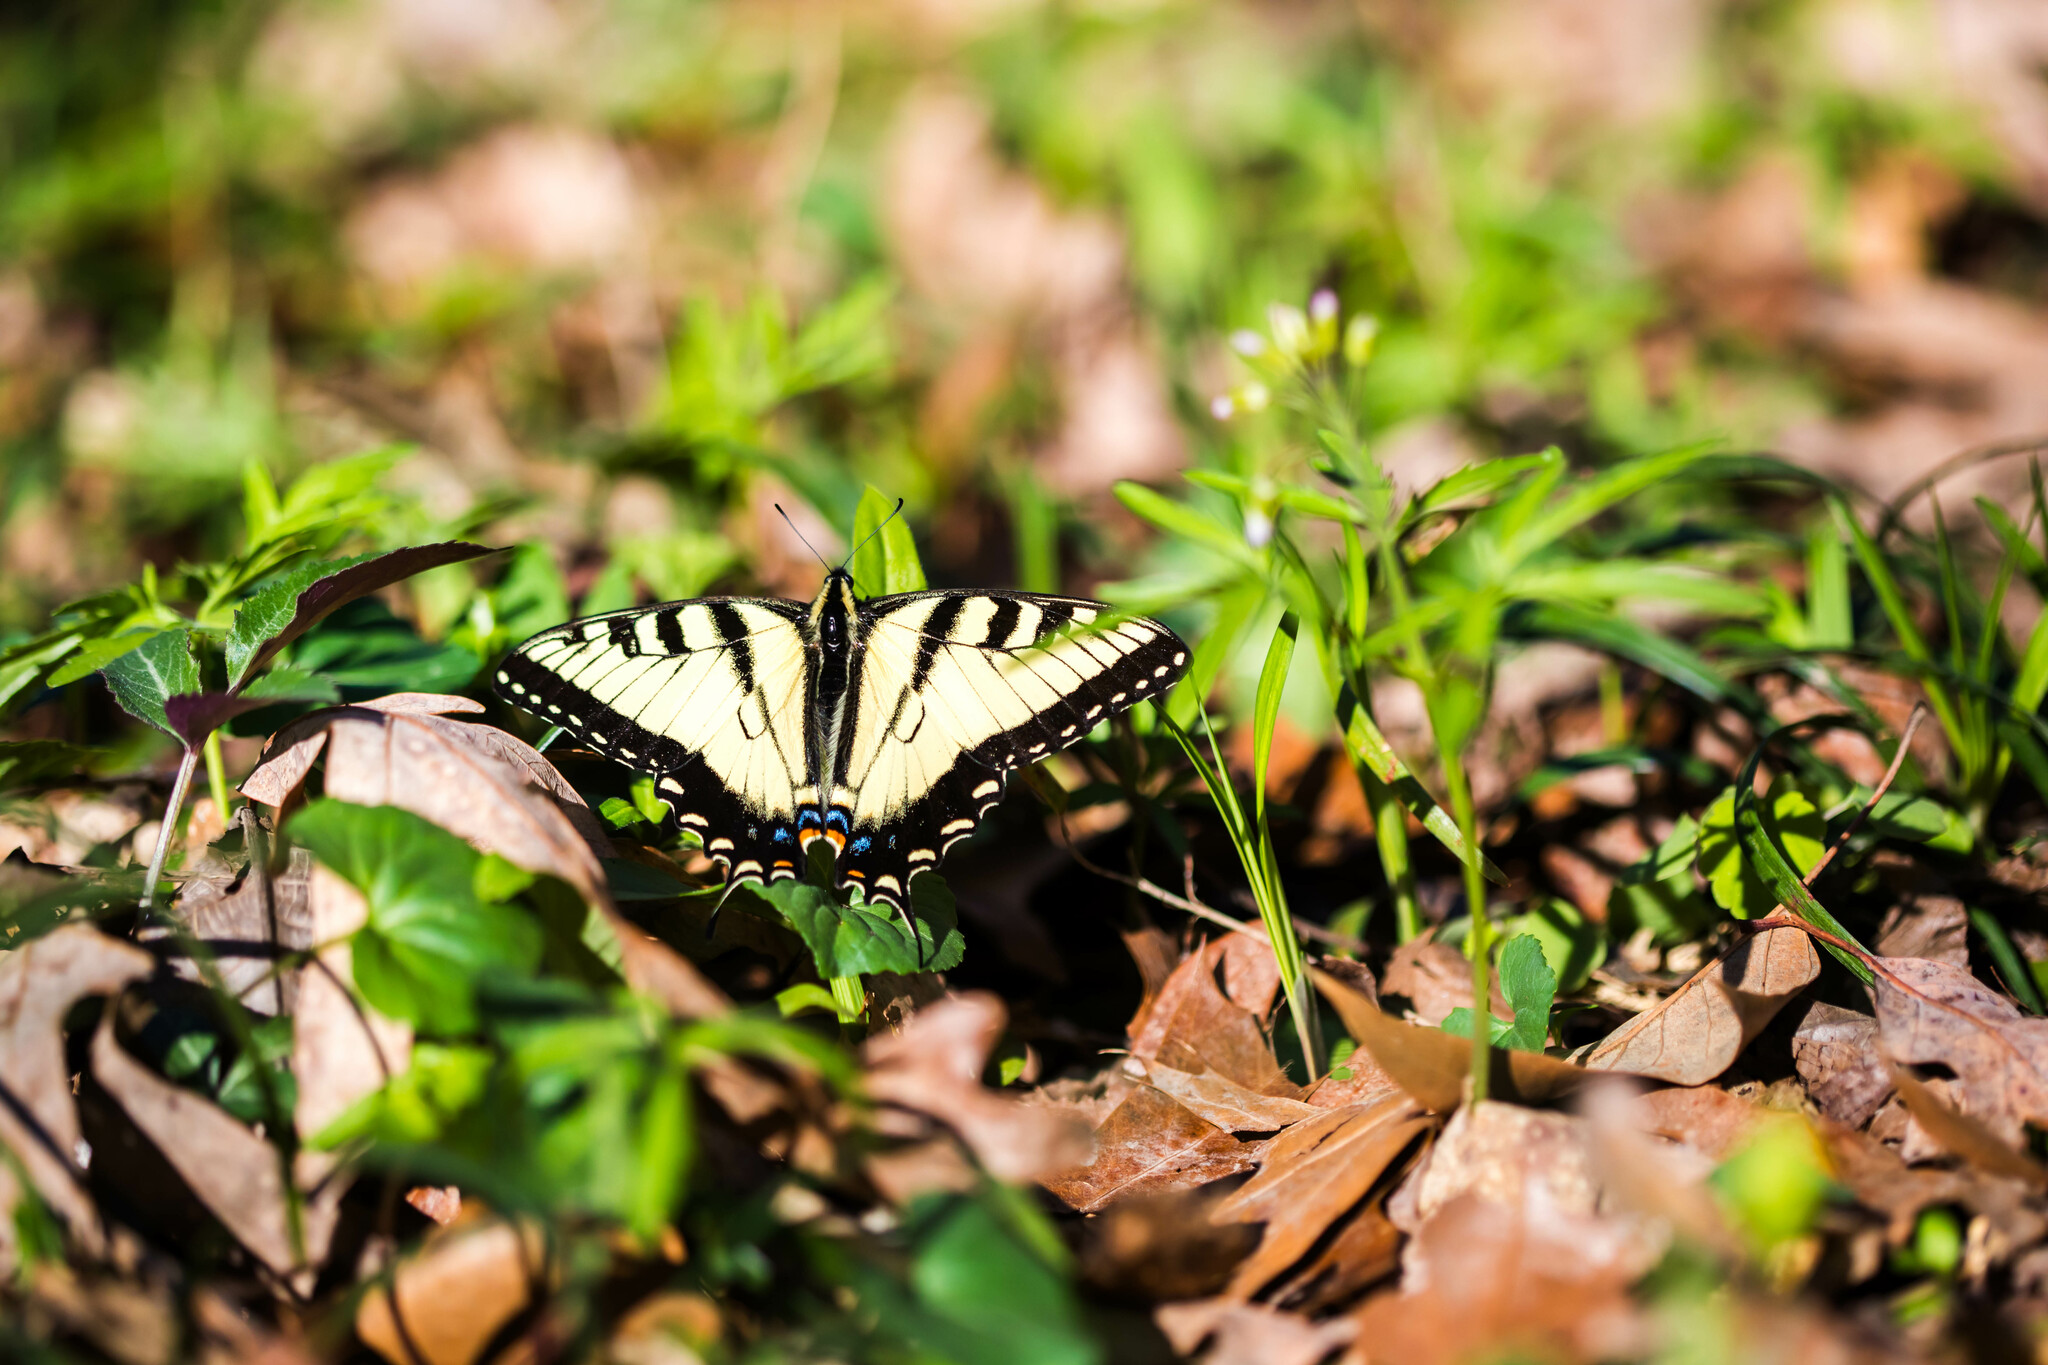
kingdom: Animalia
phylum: Arthropoda
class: Insecta
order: Lepidoptera
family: Papilionidae
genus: Papilio
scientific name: Papilio glaucus
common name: Tiger swallowtail
